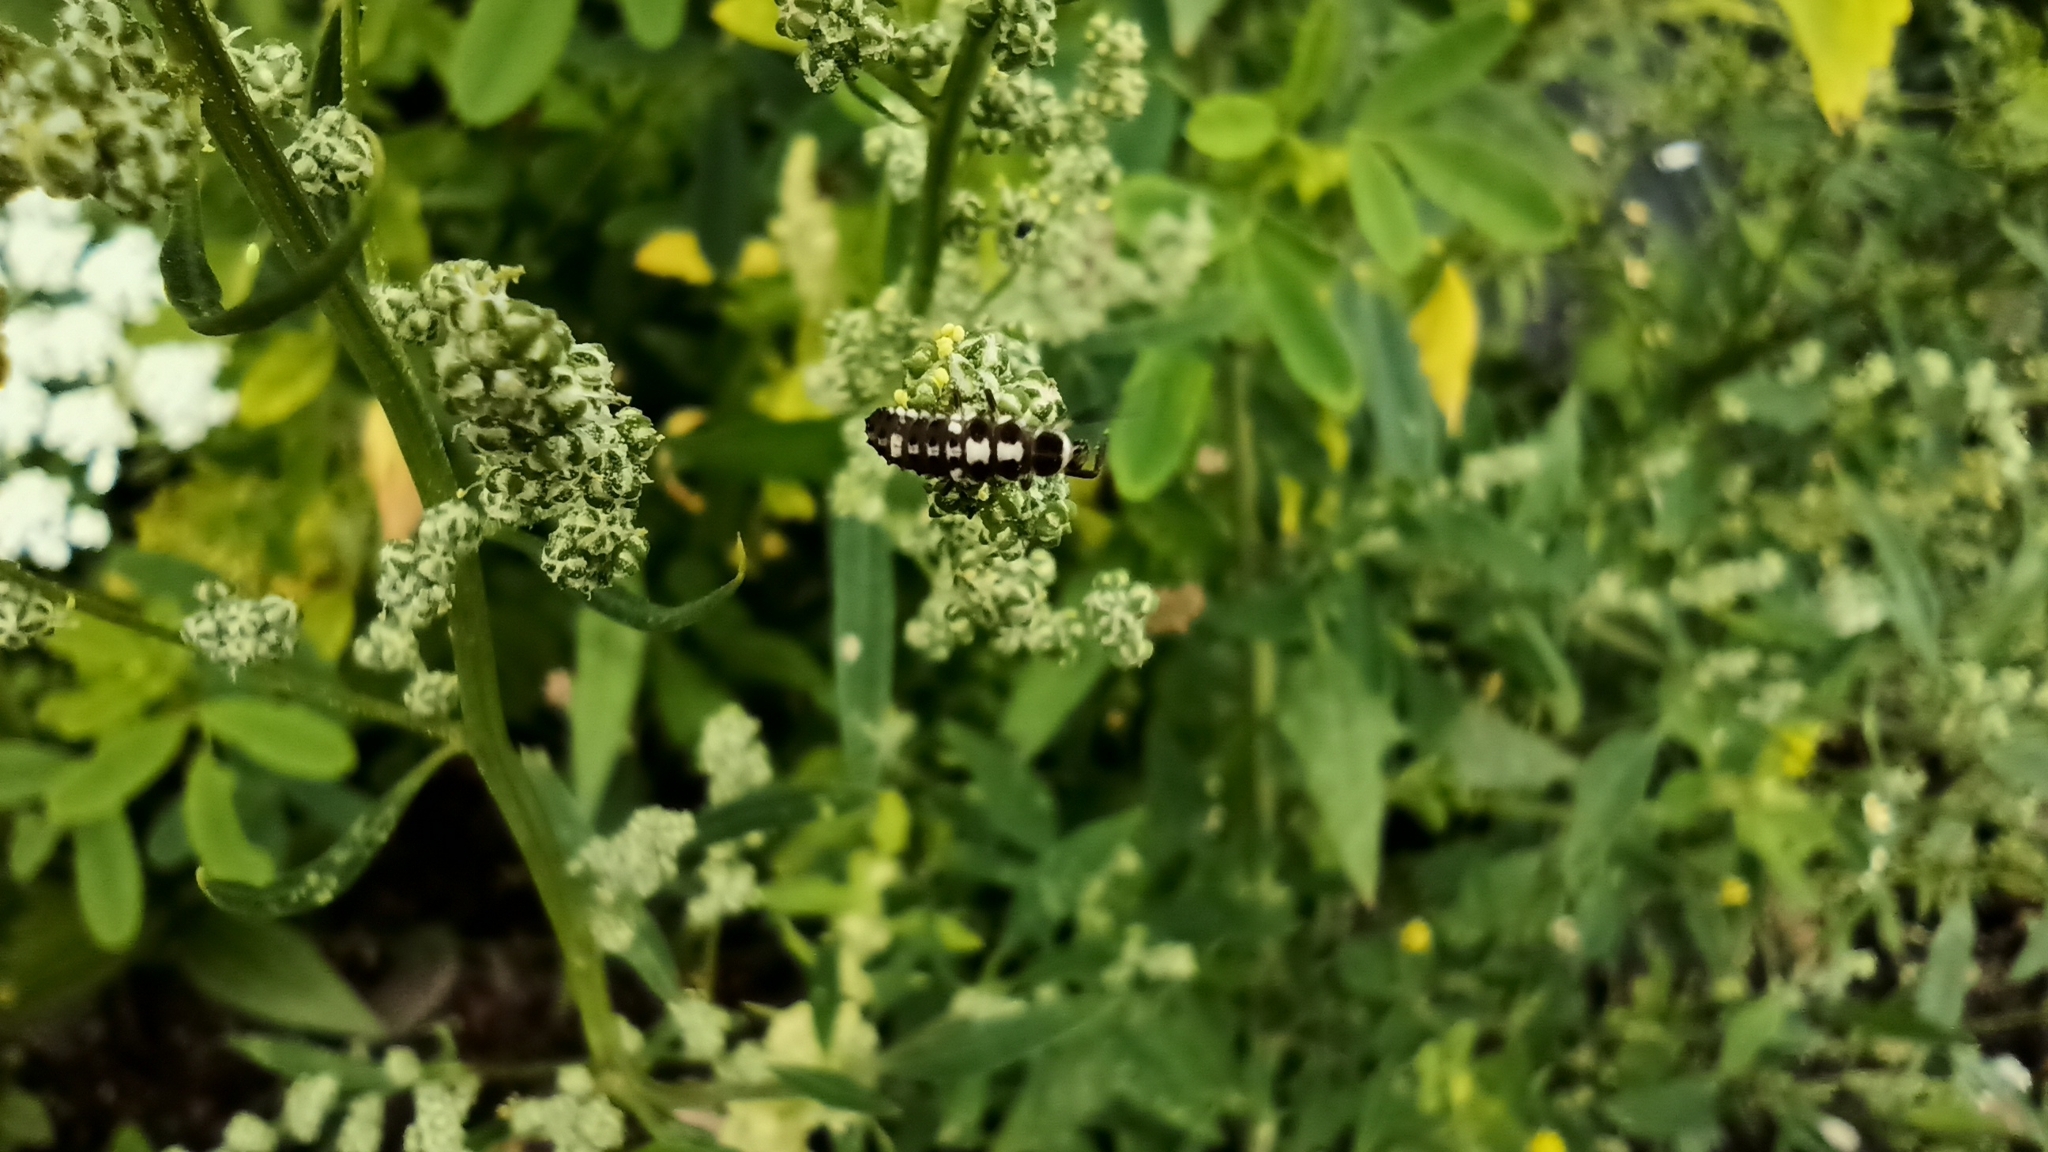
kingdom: Animalia
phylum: Arthropoda
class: Insecta
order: Coleoptera
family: Coccinellidae
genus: Propylaea
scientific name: Propylaea quatuordecimpunctata
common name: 14-spotted ladybird beetle
